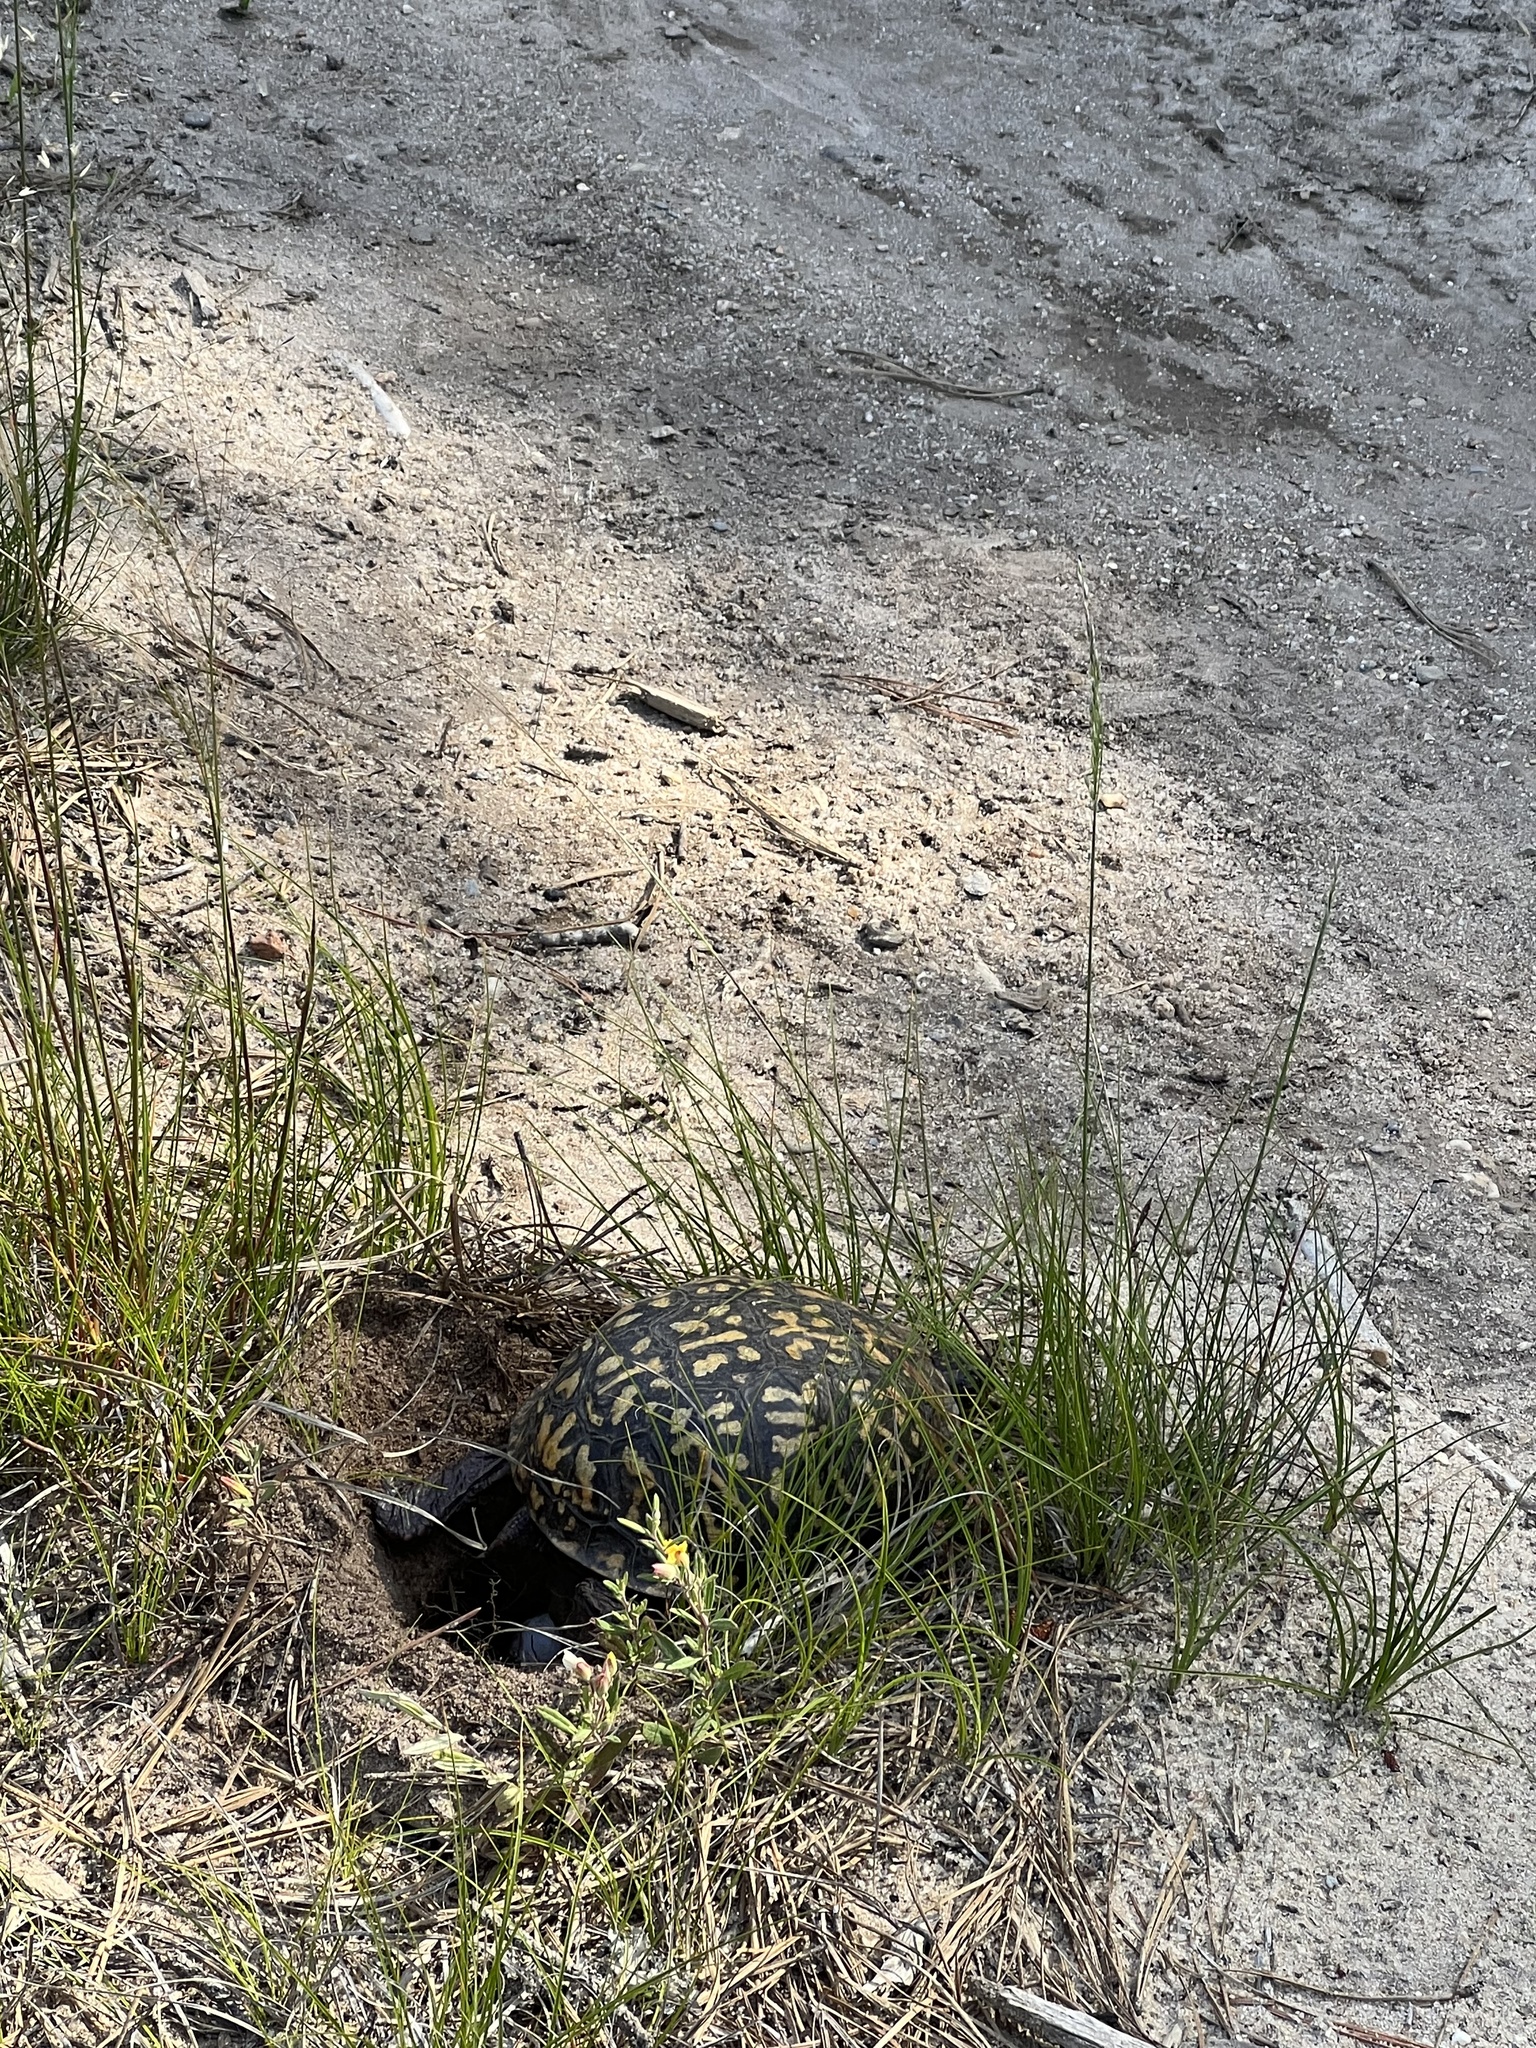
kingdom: Animalia
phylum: Chordata
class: Testudines
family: Emydidae
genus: Terrapene
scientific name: Terrapene carolina
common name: Common box turtle
